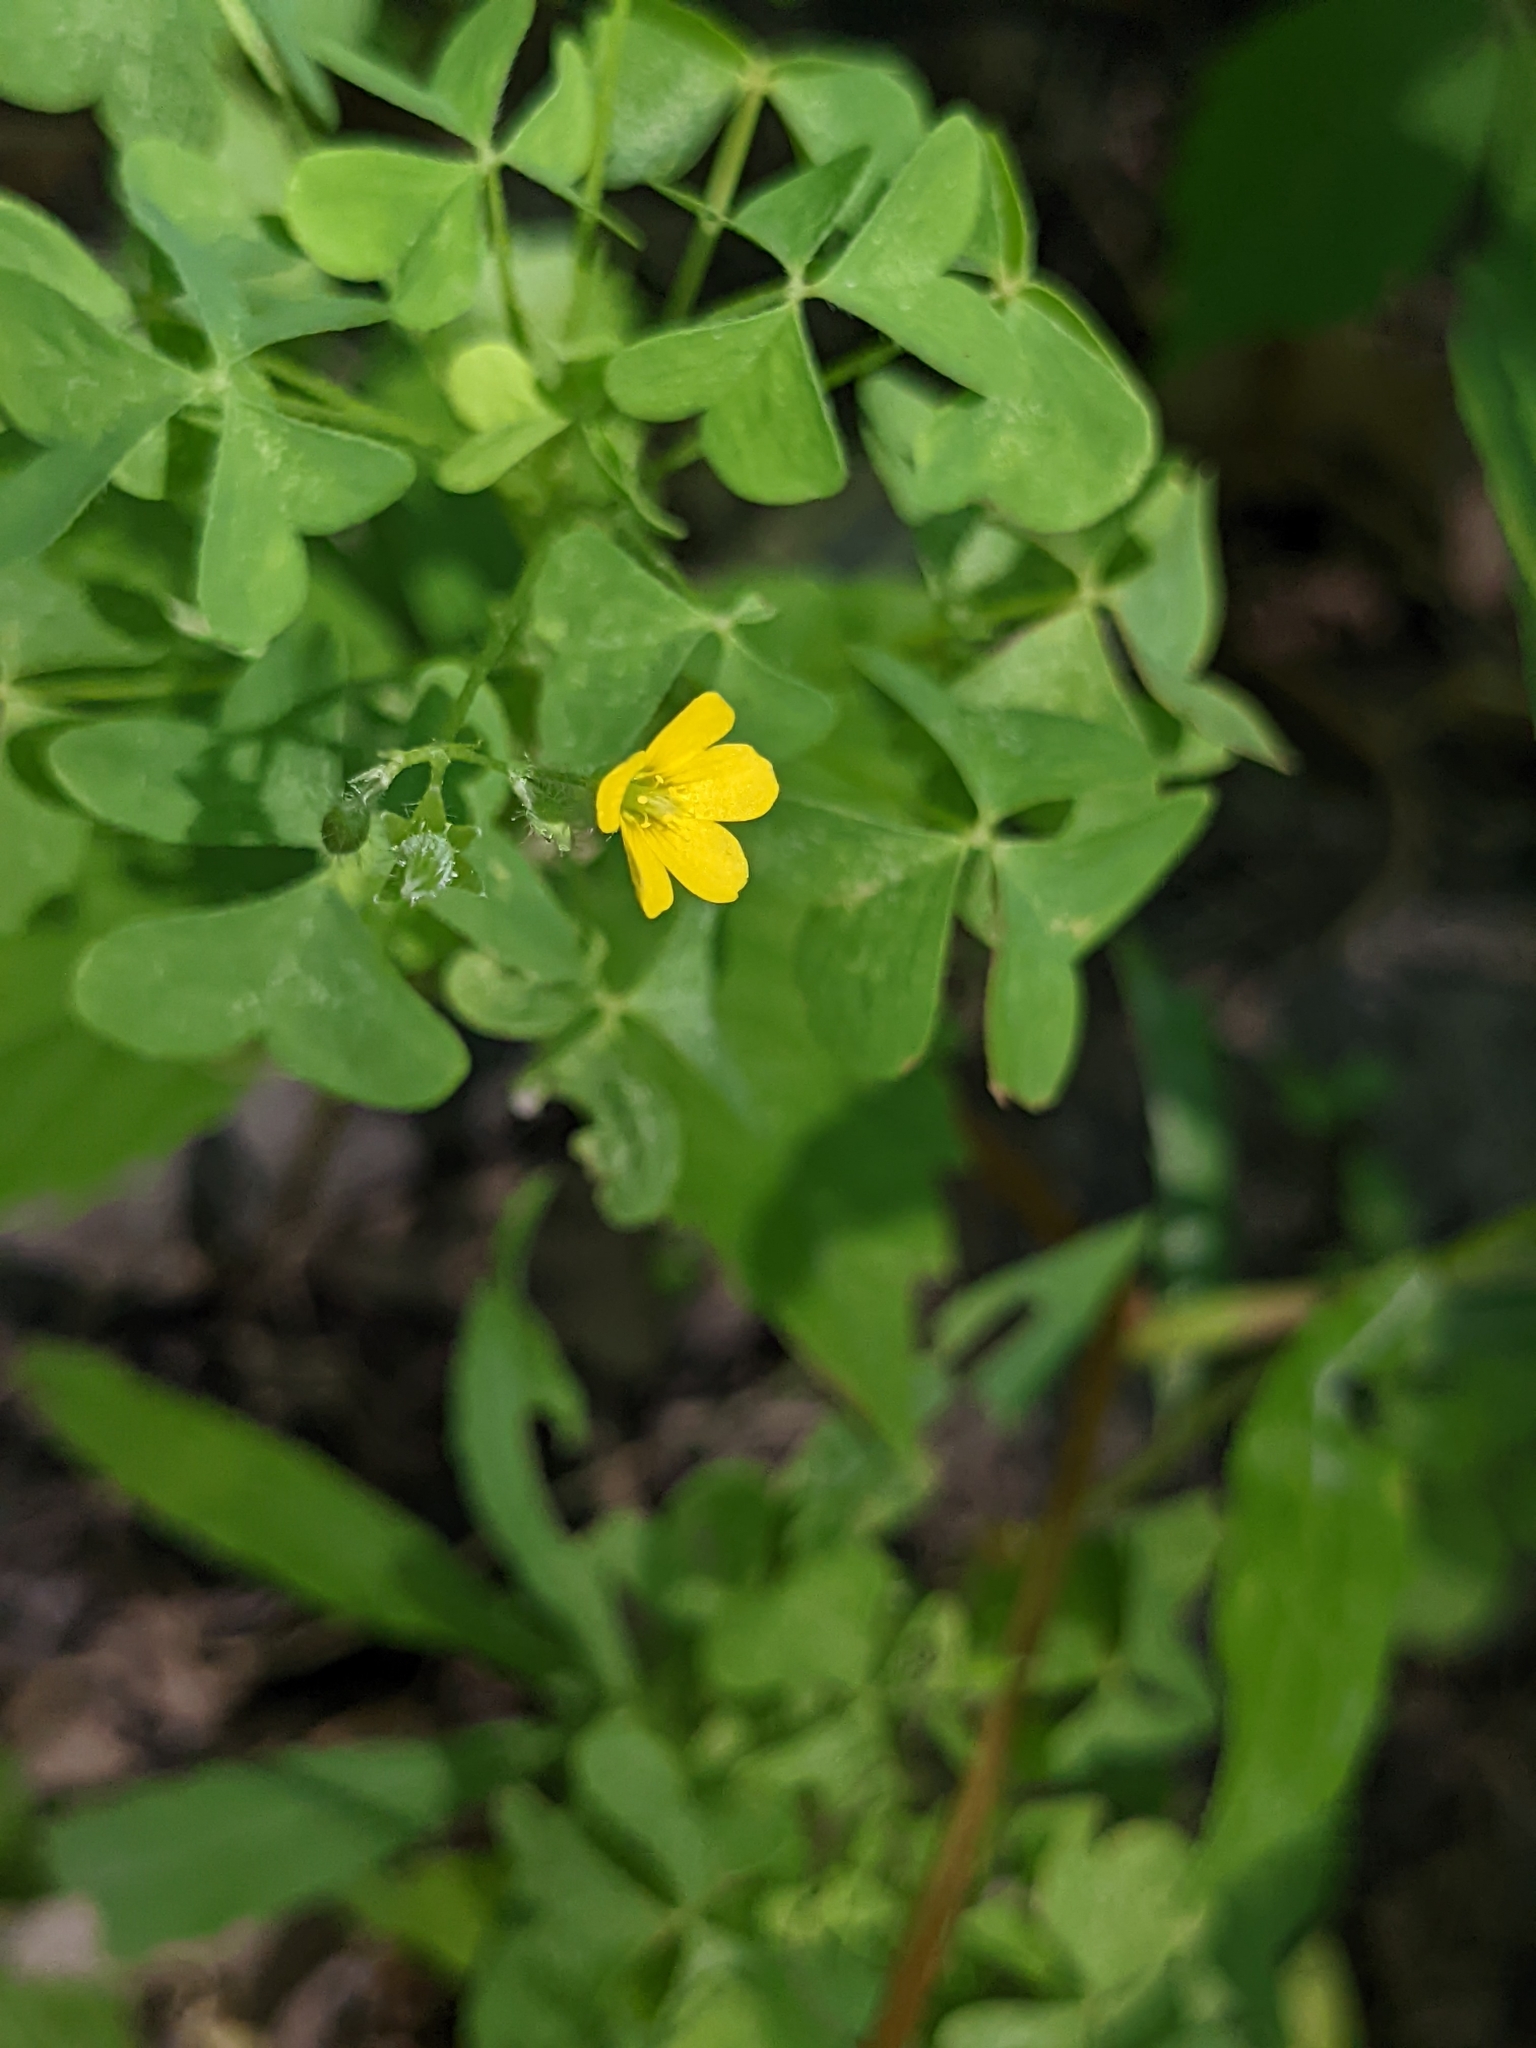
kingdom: Plantae
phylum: Tracheophyta
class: Magnoliopsida
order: Oxalidales
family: Oxalidaceae
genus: Oxalis
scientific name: Oxalis stricta
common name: Upright yellow-sorrel
